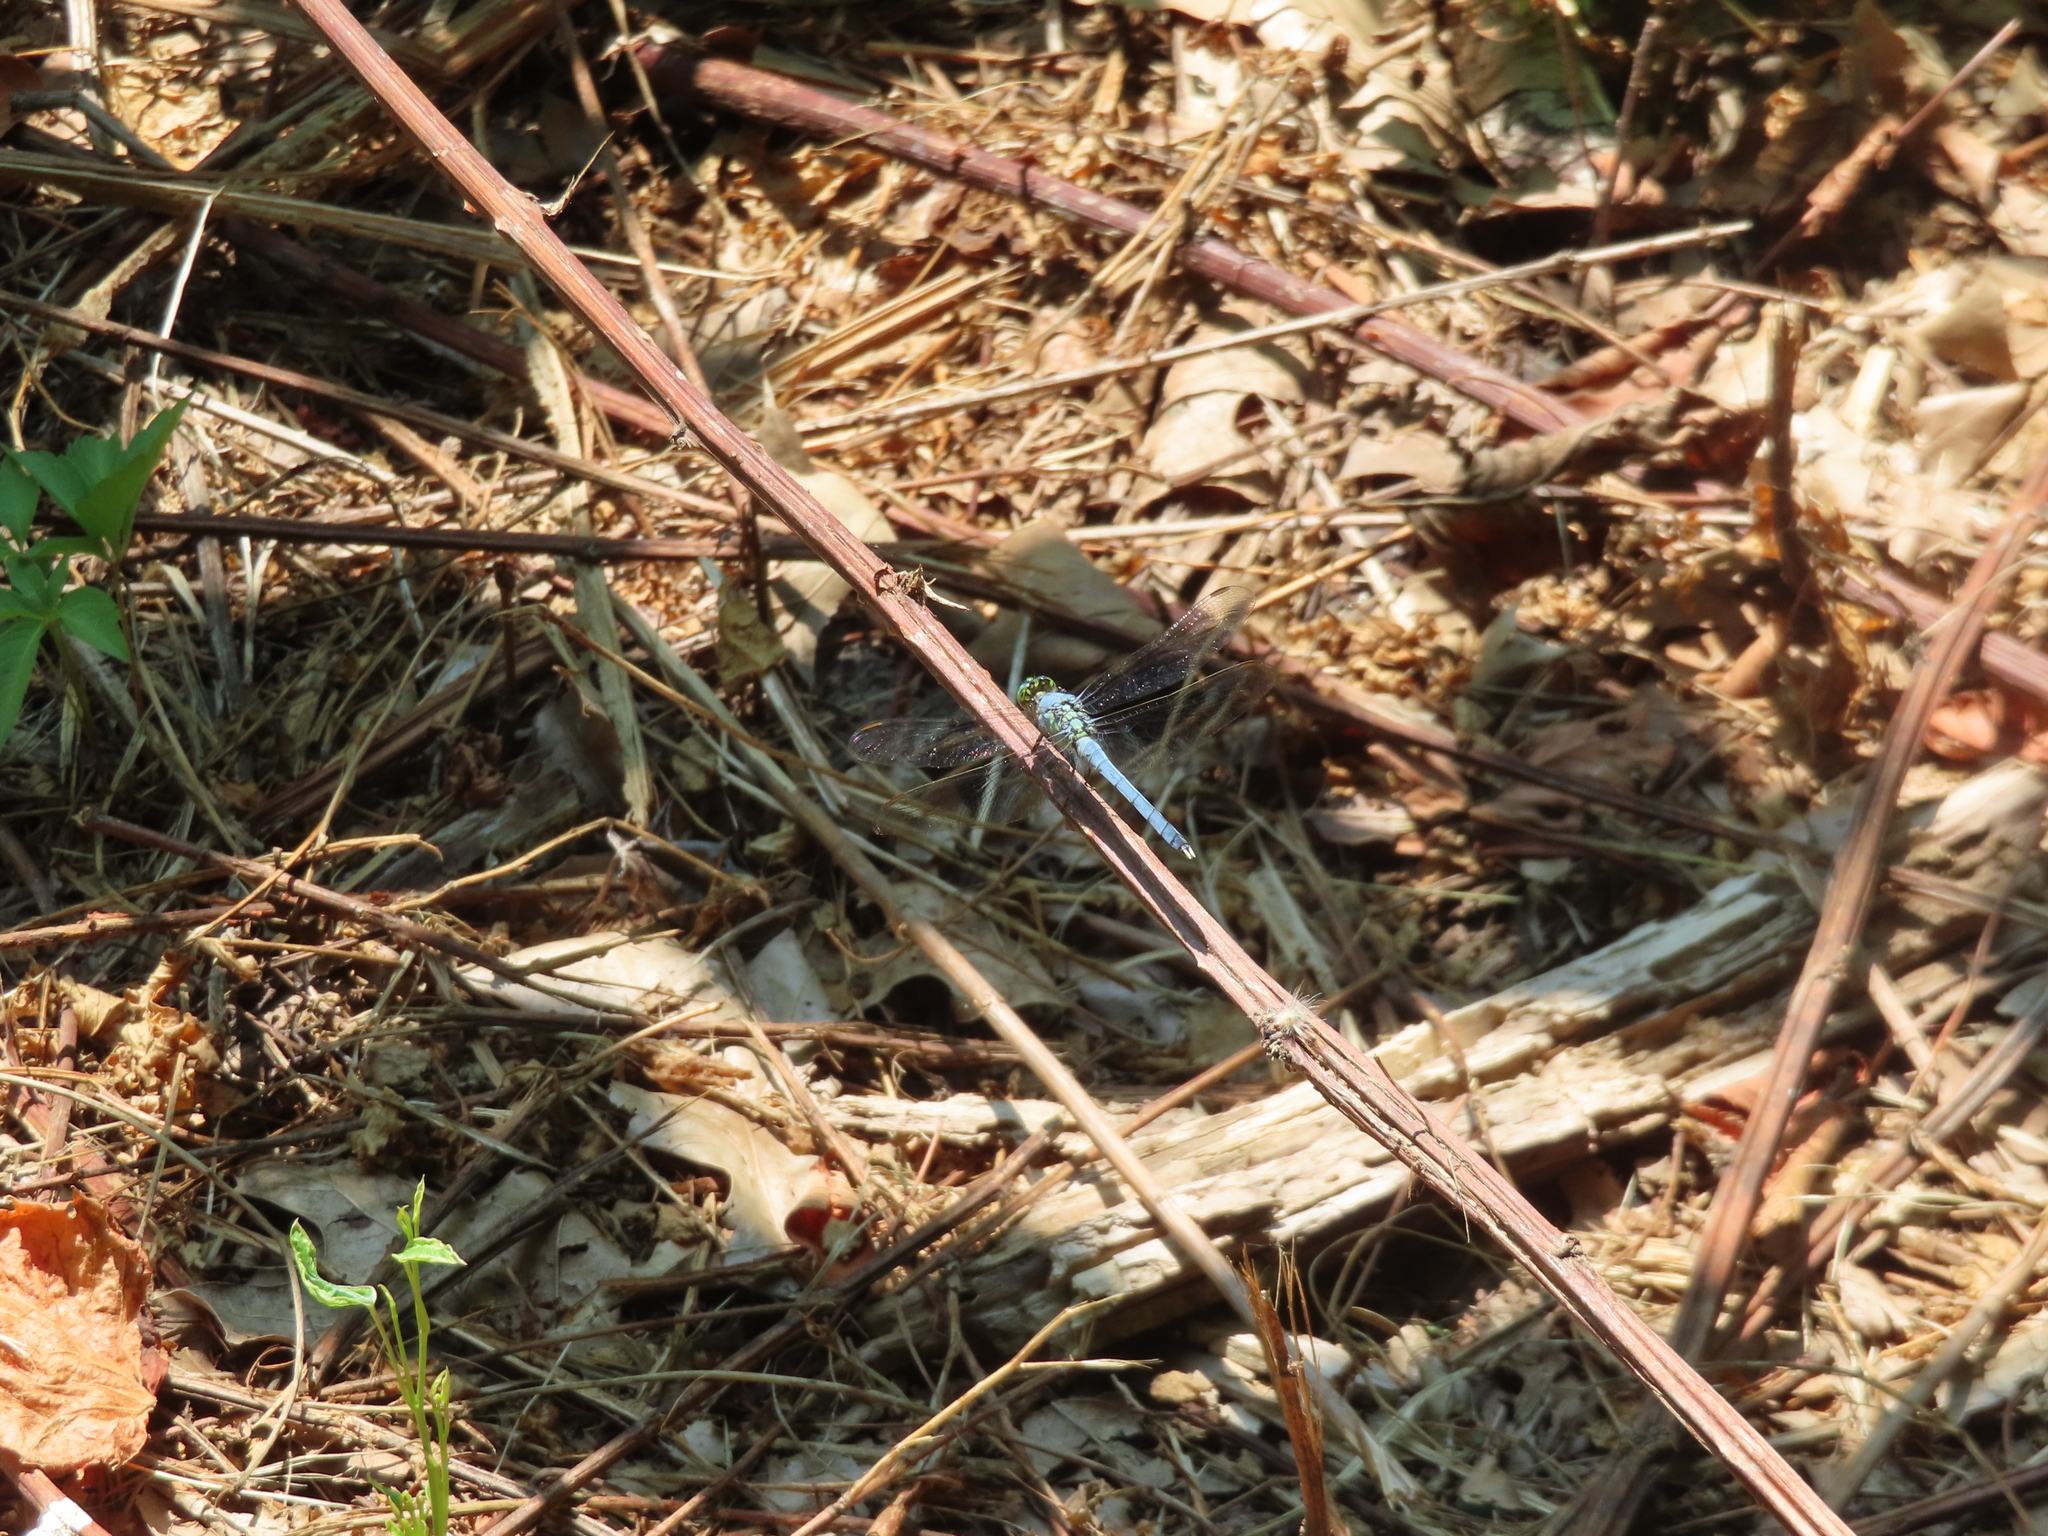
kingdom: Animalia
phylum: Arthropoda
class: Insecta
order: Odonata
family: Libellulidae
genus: Erythemis
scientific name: Erythemis simplicicollis
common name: Eastern pondhawk
